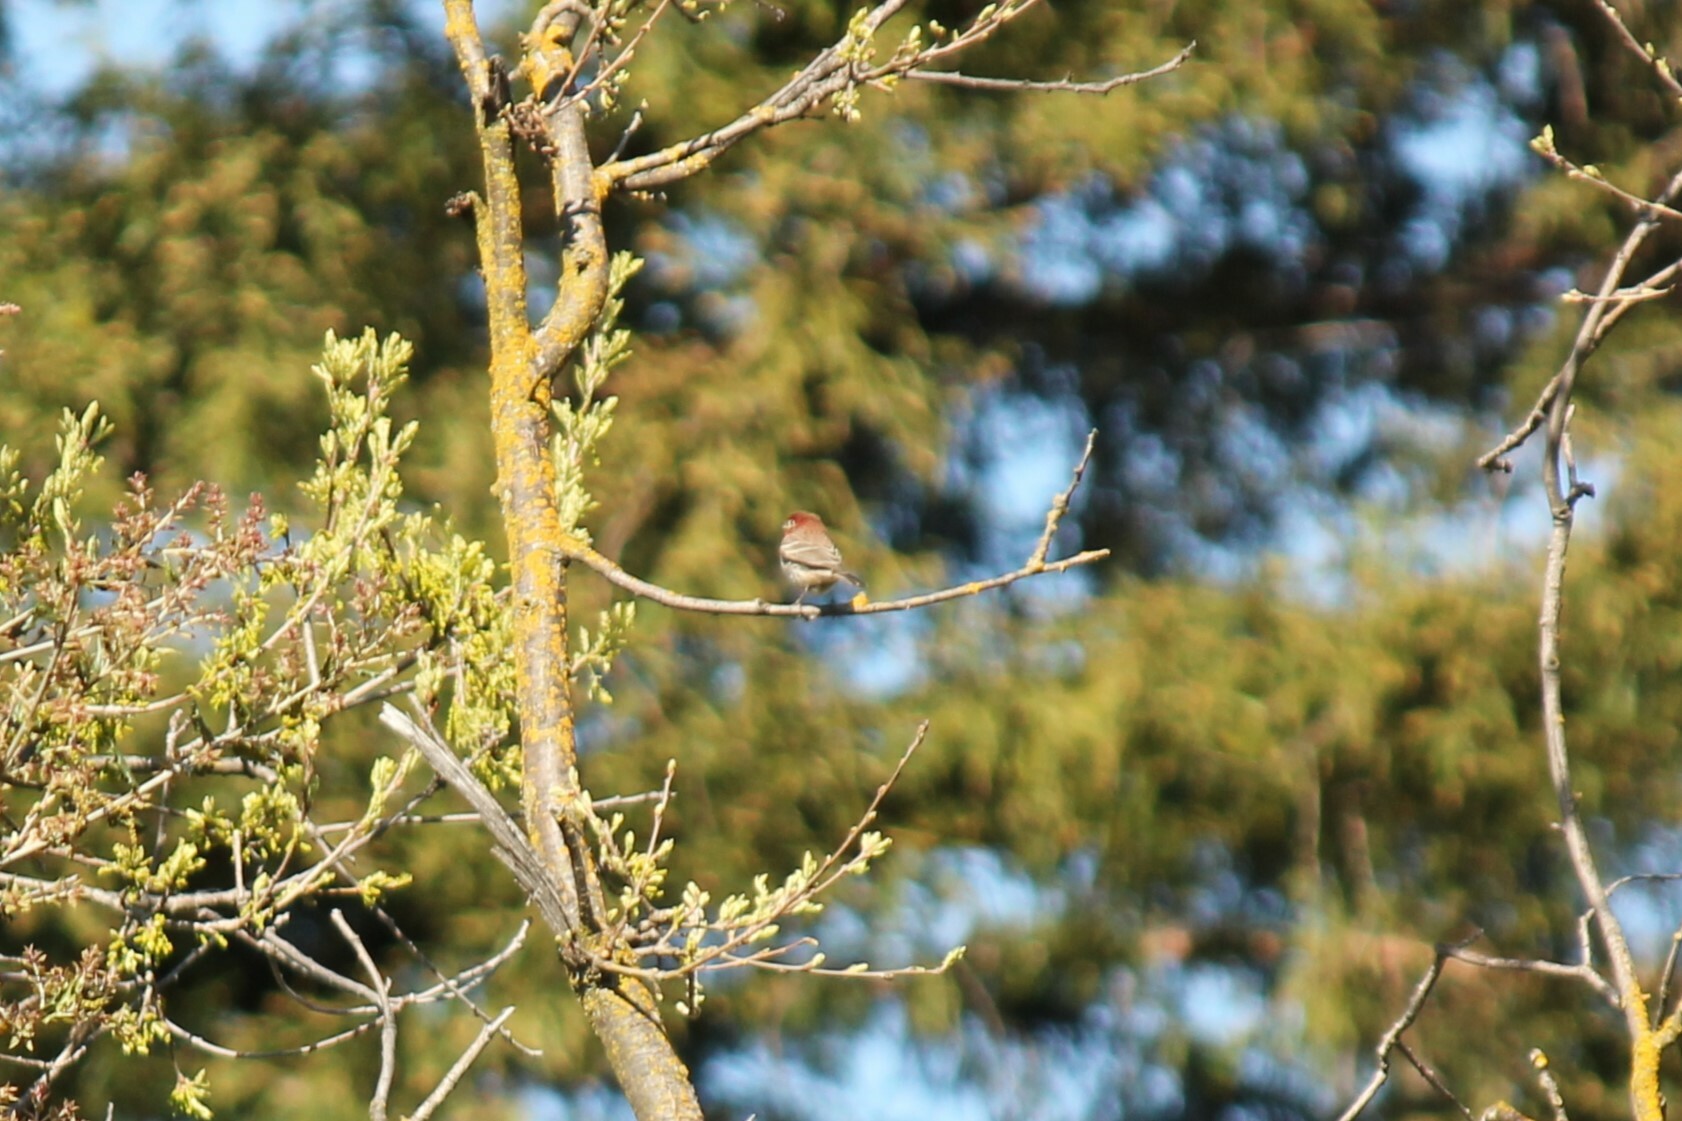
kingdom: Animalia
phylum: Chordata
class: Aves
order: Passeriformes
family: Fringillidae
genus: Haemorhous
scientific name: Haemorhous mexicanus
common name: House finch
